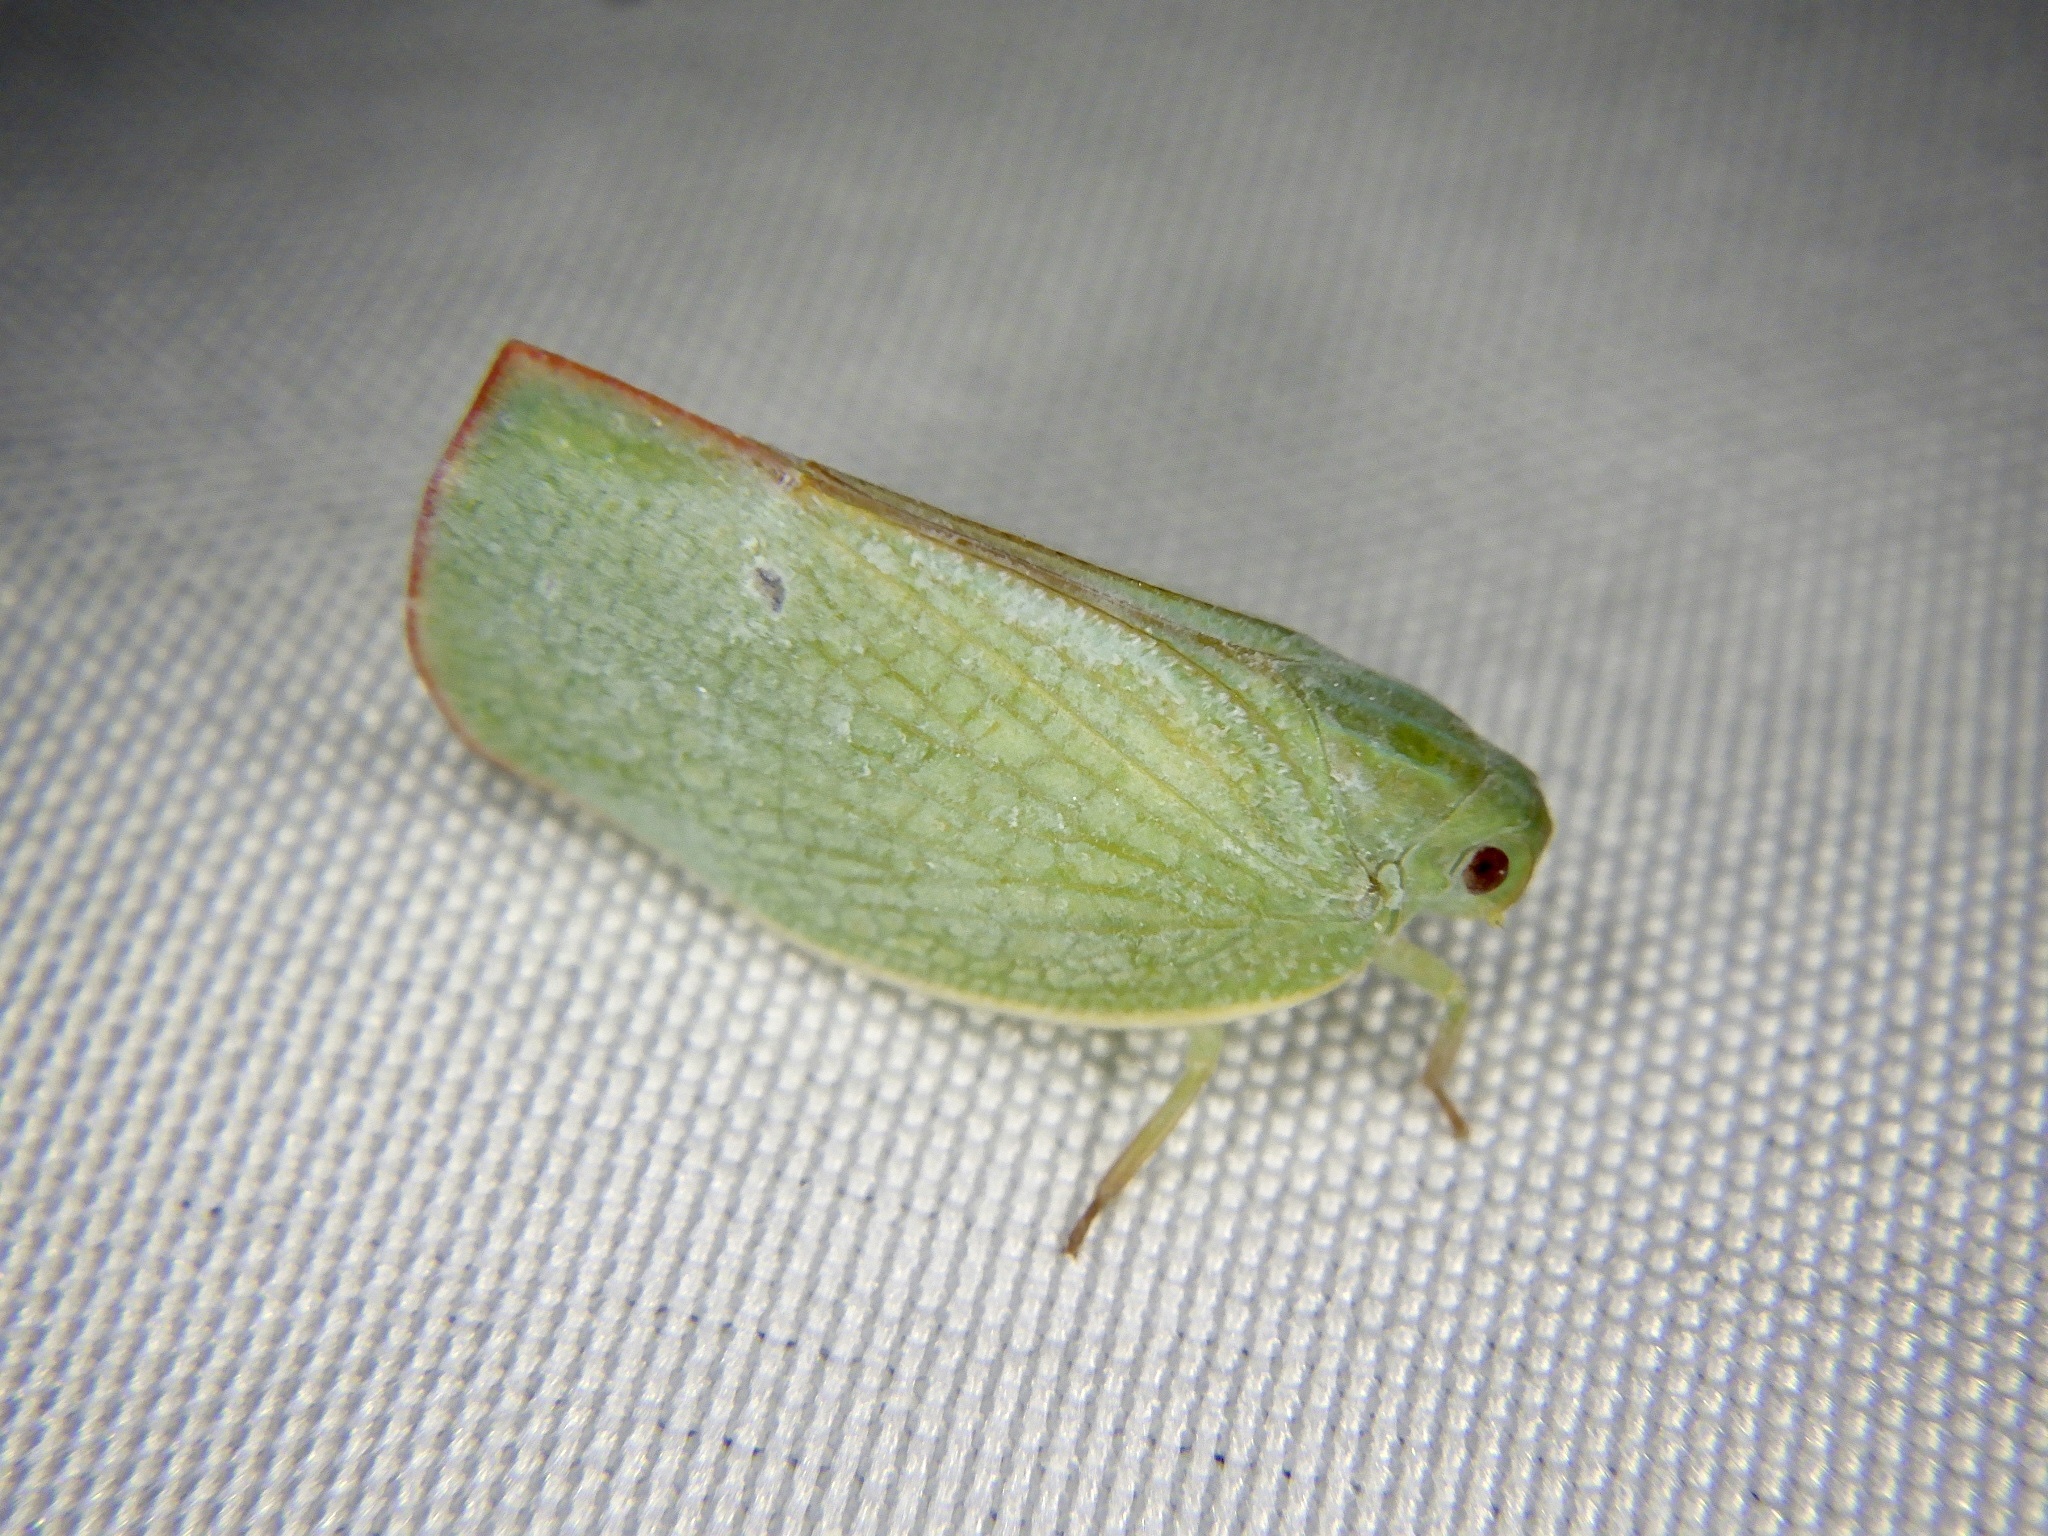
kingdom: Animalia
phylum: Arthropoda
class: Insecta
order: Hemiptera
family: Flatidae
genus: Geisha
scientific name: Geisha distinctissima
